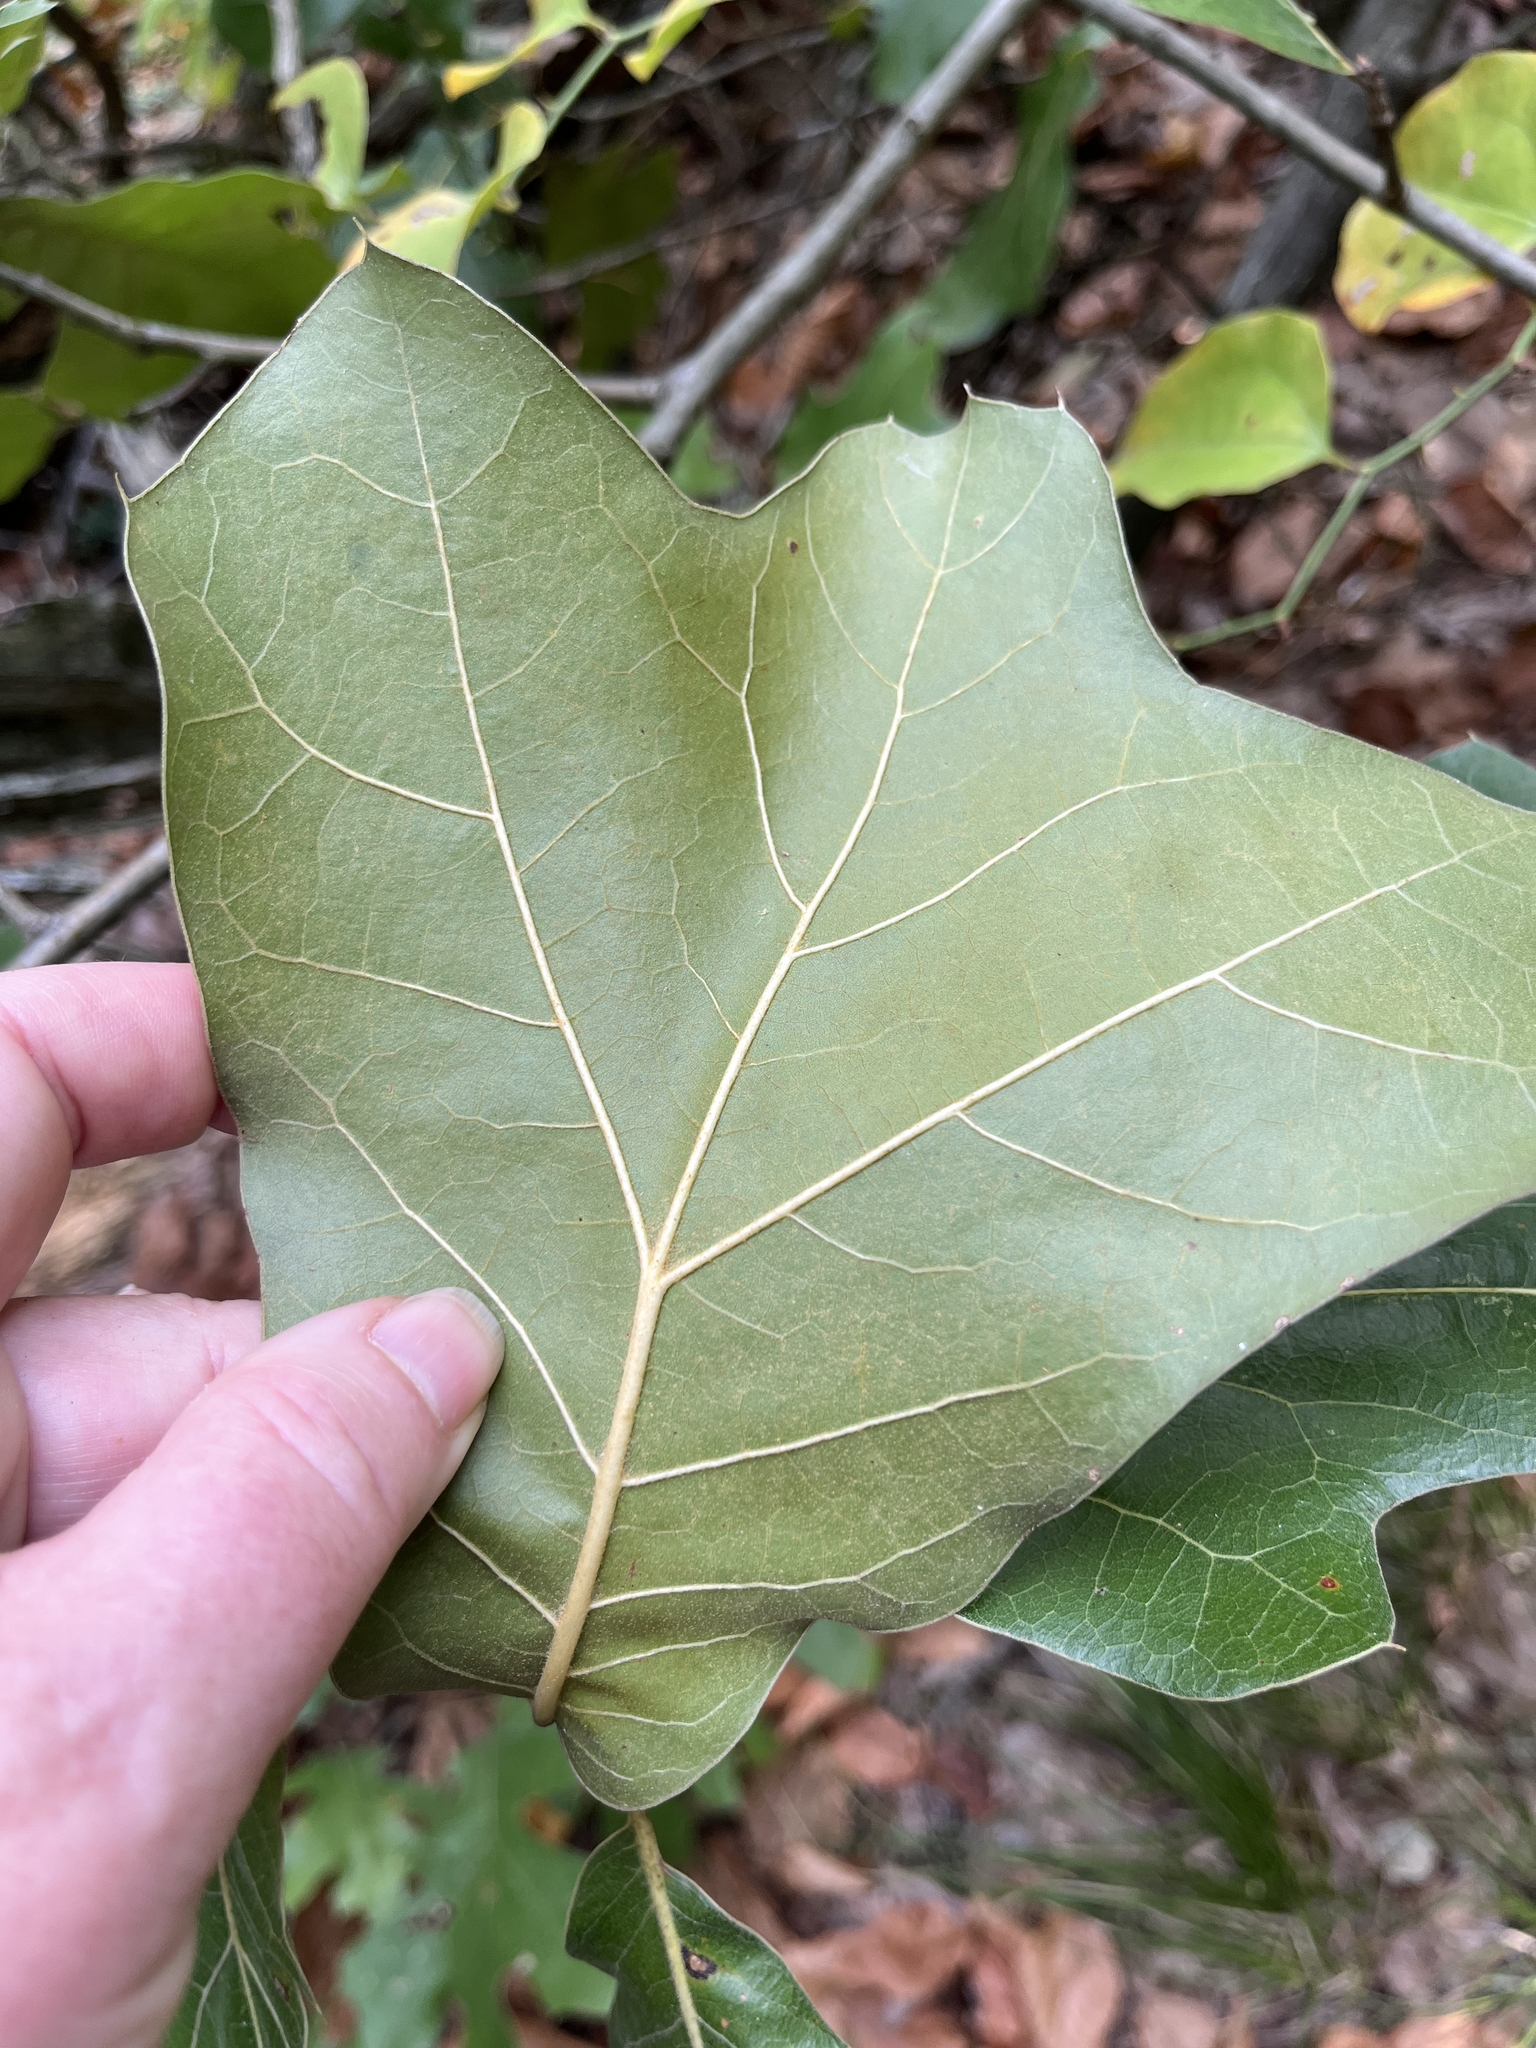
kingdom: Plantae
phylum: Tracheophyta
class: Magnoliopsida
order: Fagales
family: Fagaceae
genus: Quercus
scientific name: Quercus marilandica
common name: Blackjack oak
